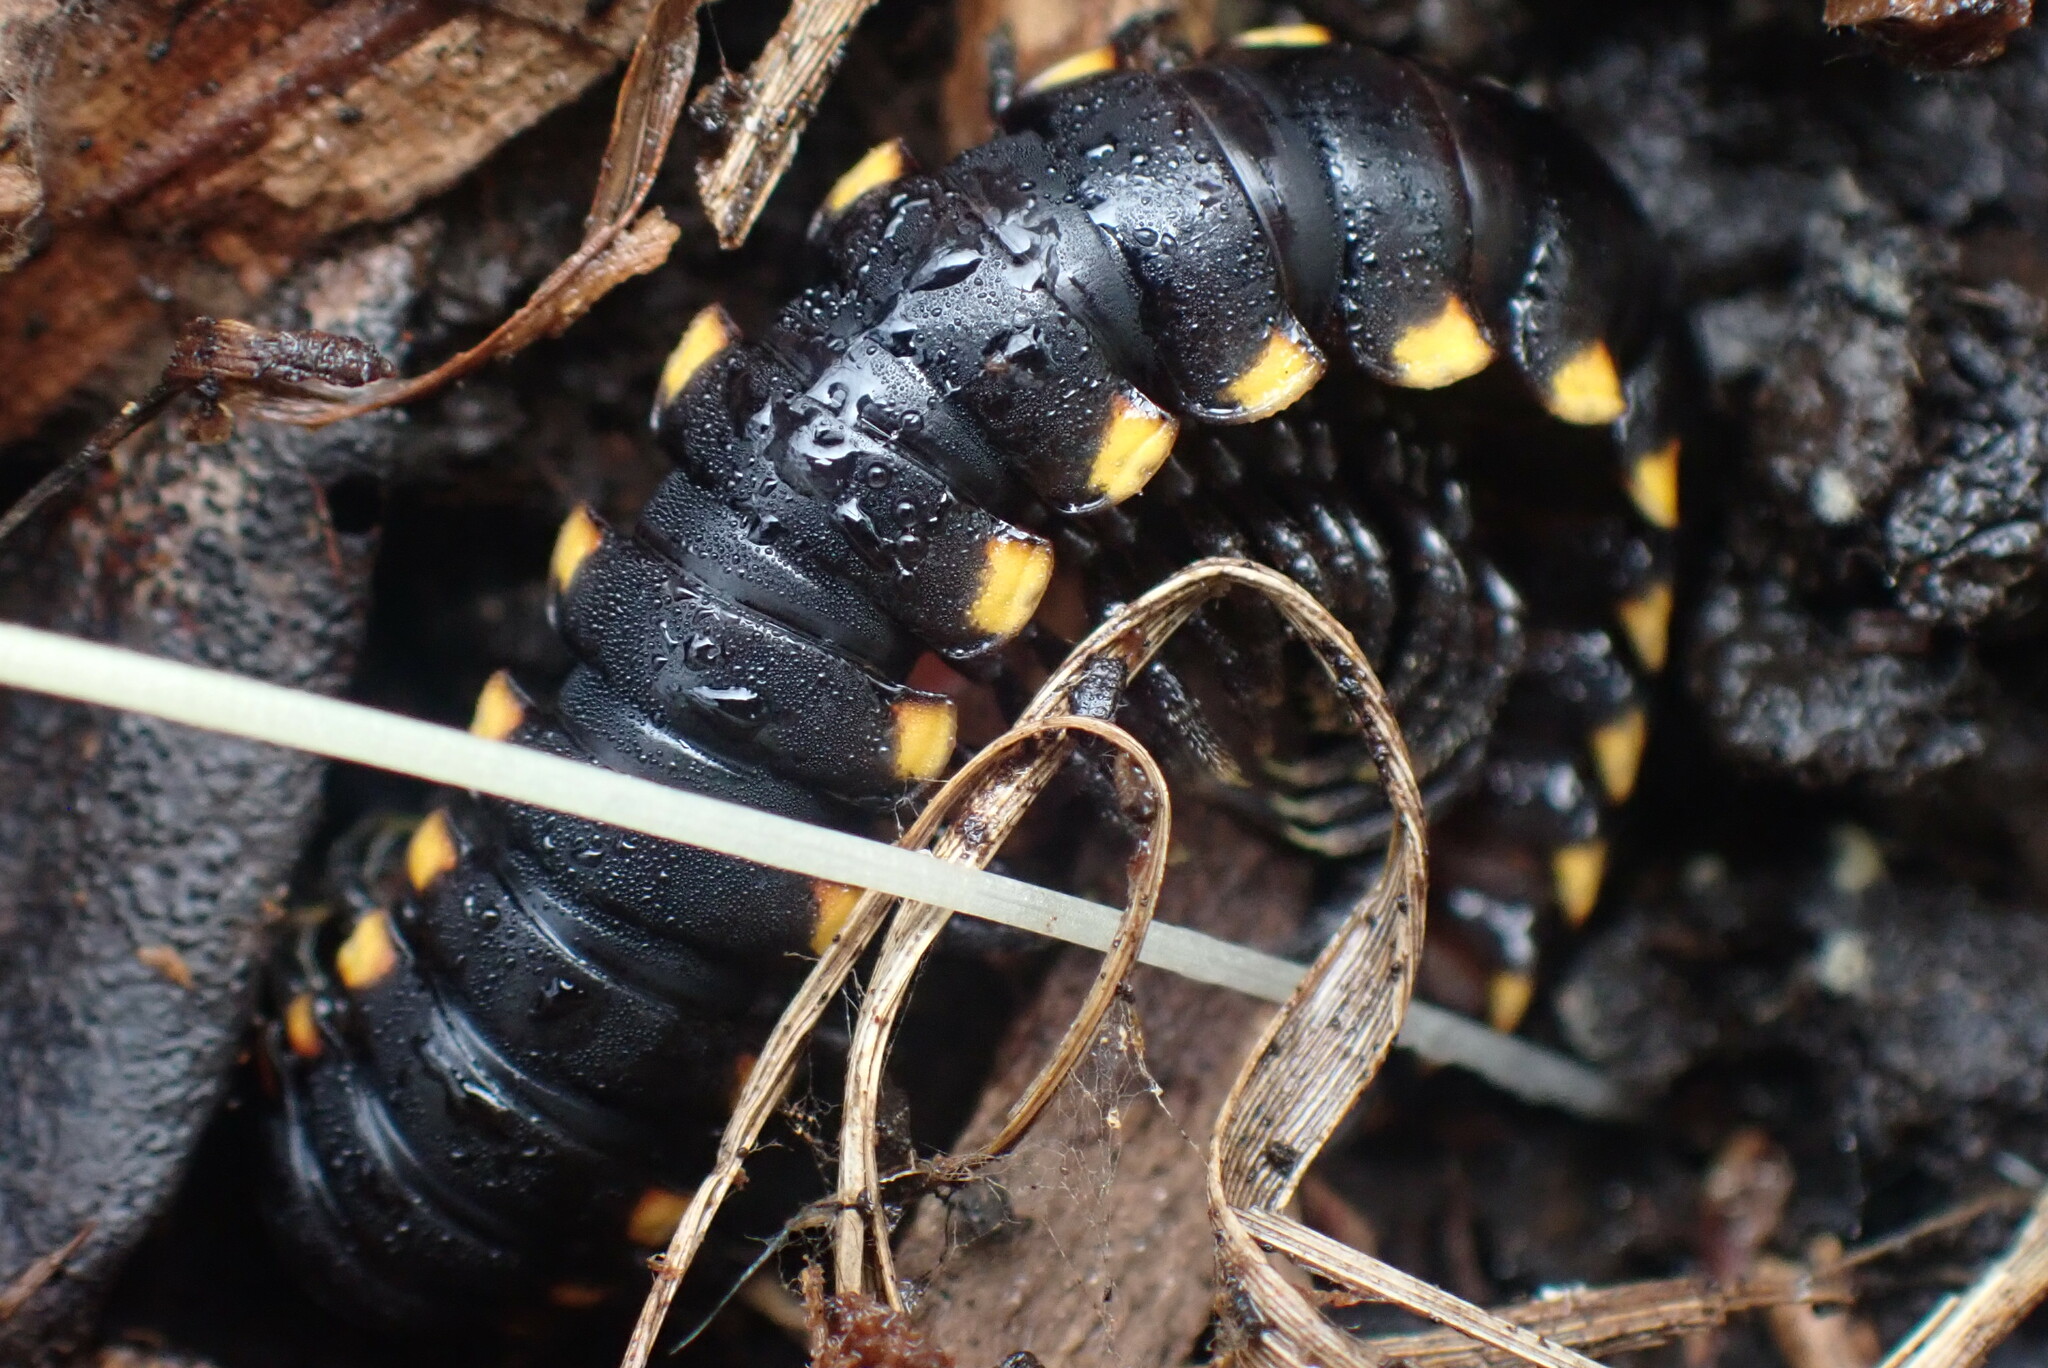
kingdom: Animalia
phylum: Arthropoda
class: Diplopoda
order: Polydesmida
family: Xystodesmidae
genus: Harpaphe
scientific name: Harpaphe haydeniana
